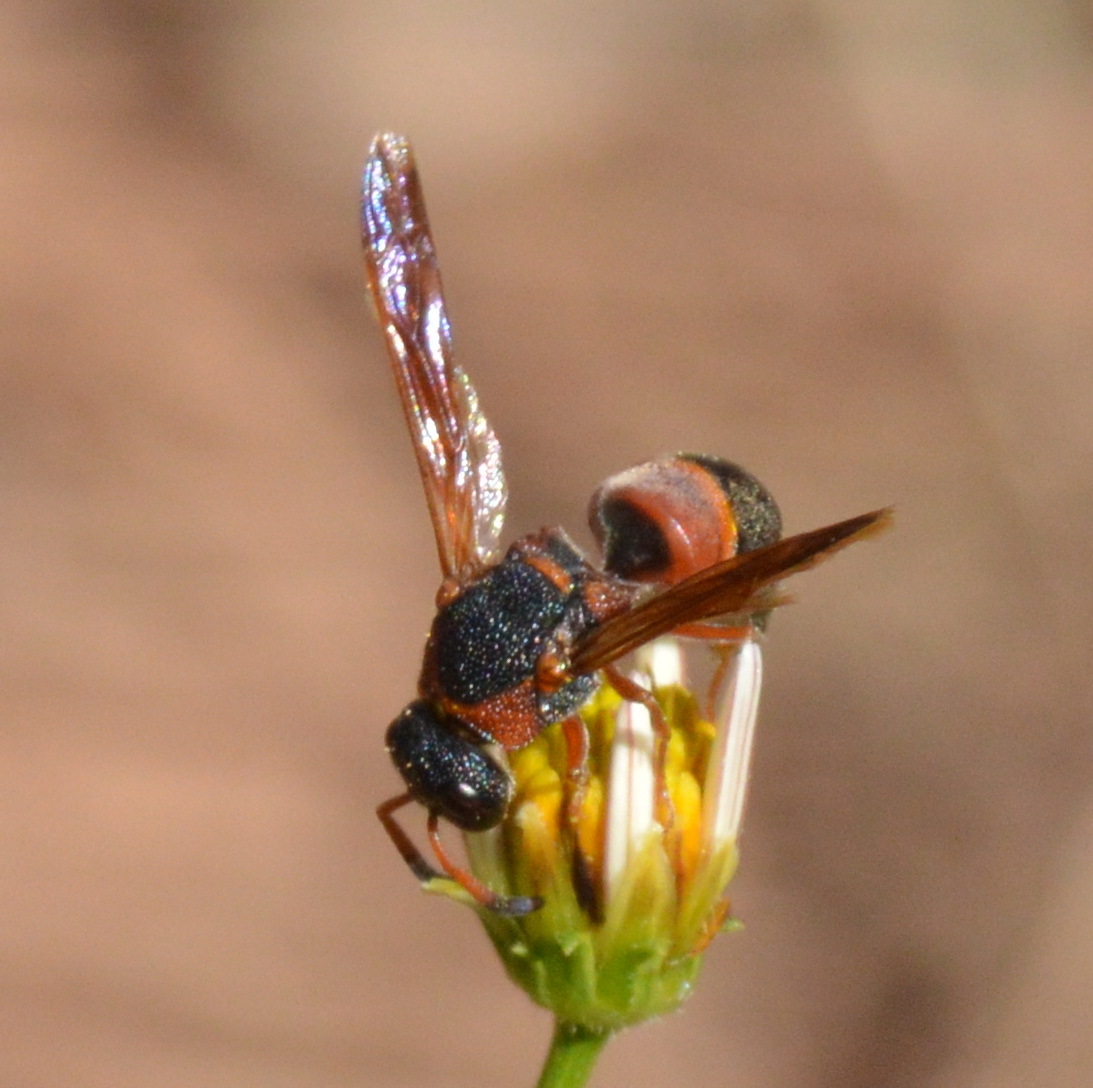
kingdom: Animalia
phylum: Arthropoda
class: Insecta
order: Hymenoptera
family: Eumenidae
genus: Pachodynerus
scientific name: Pachodynerus erynnis
